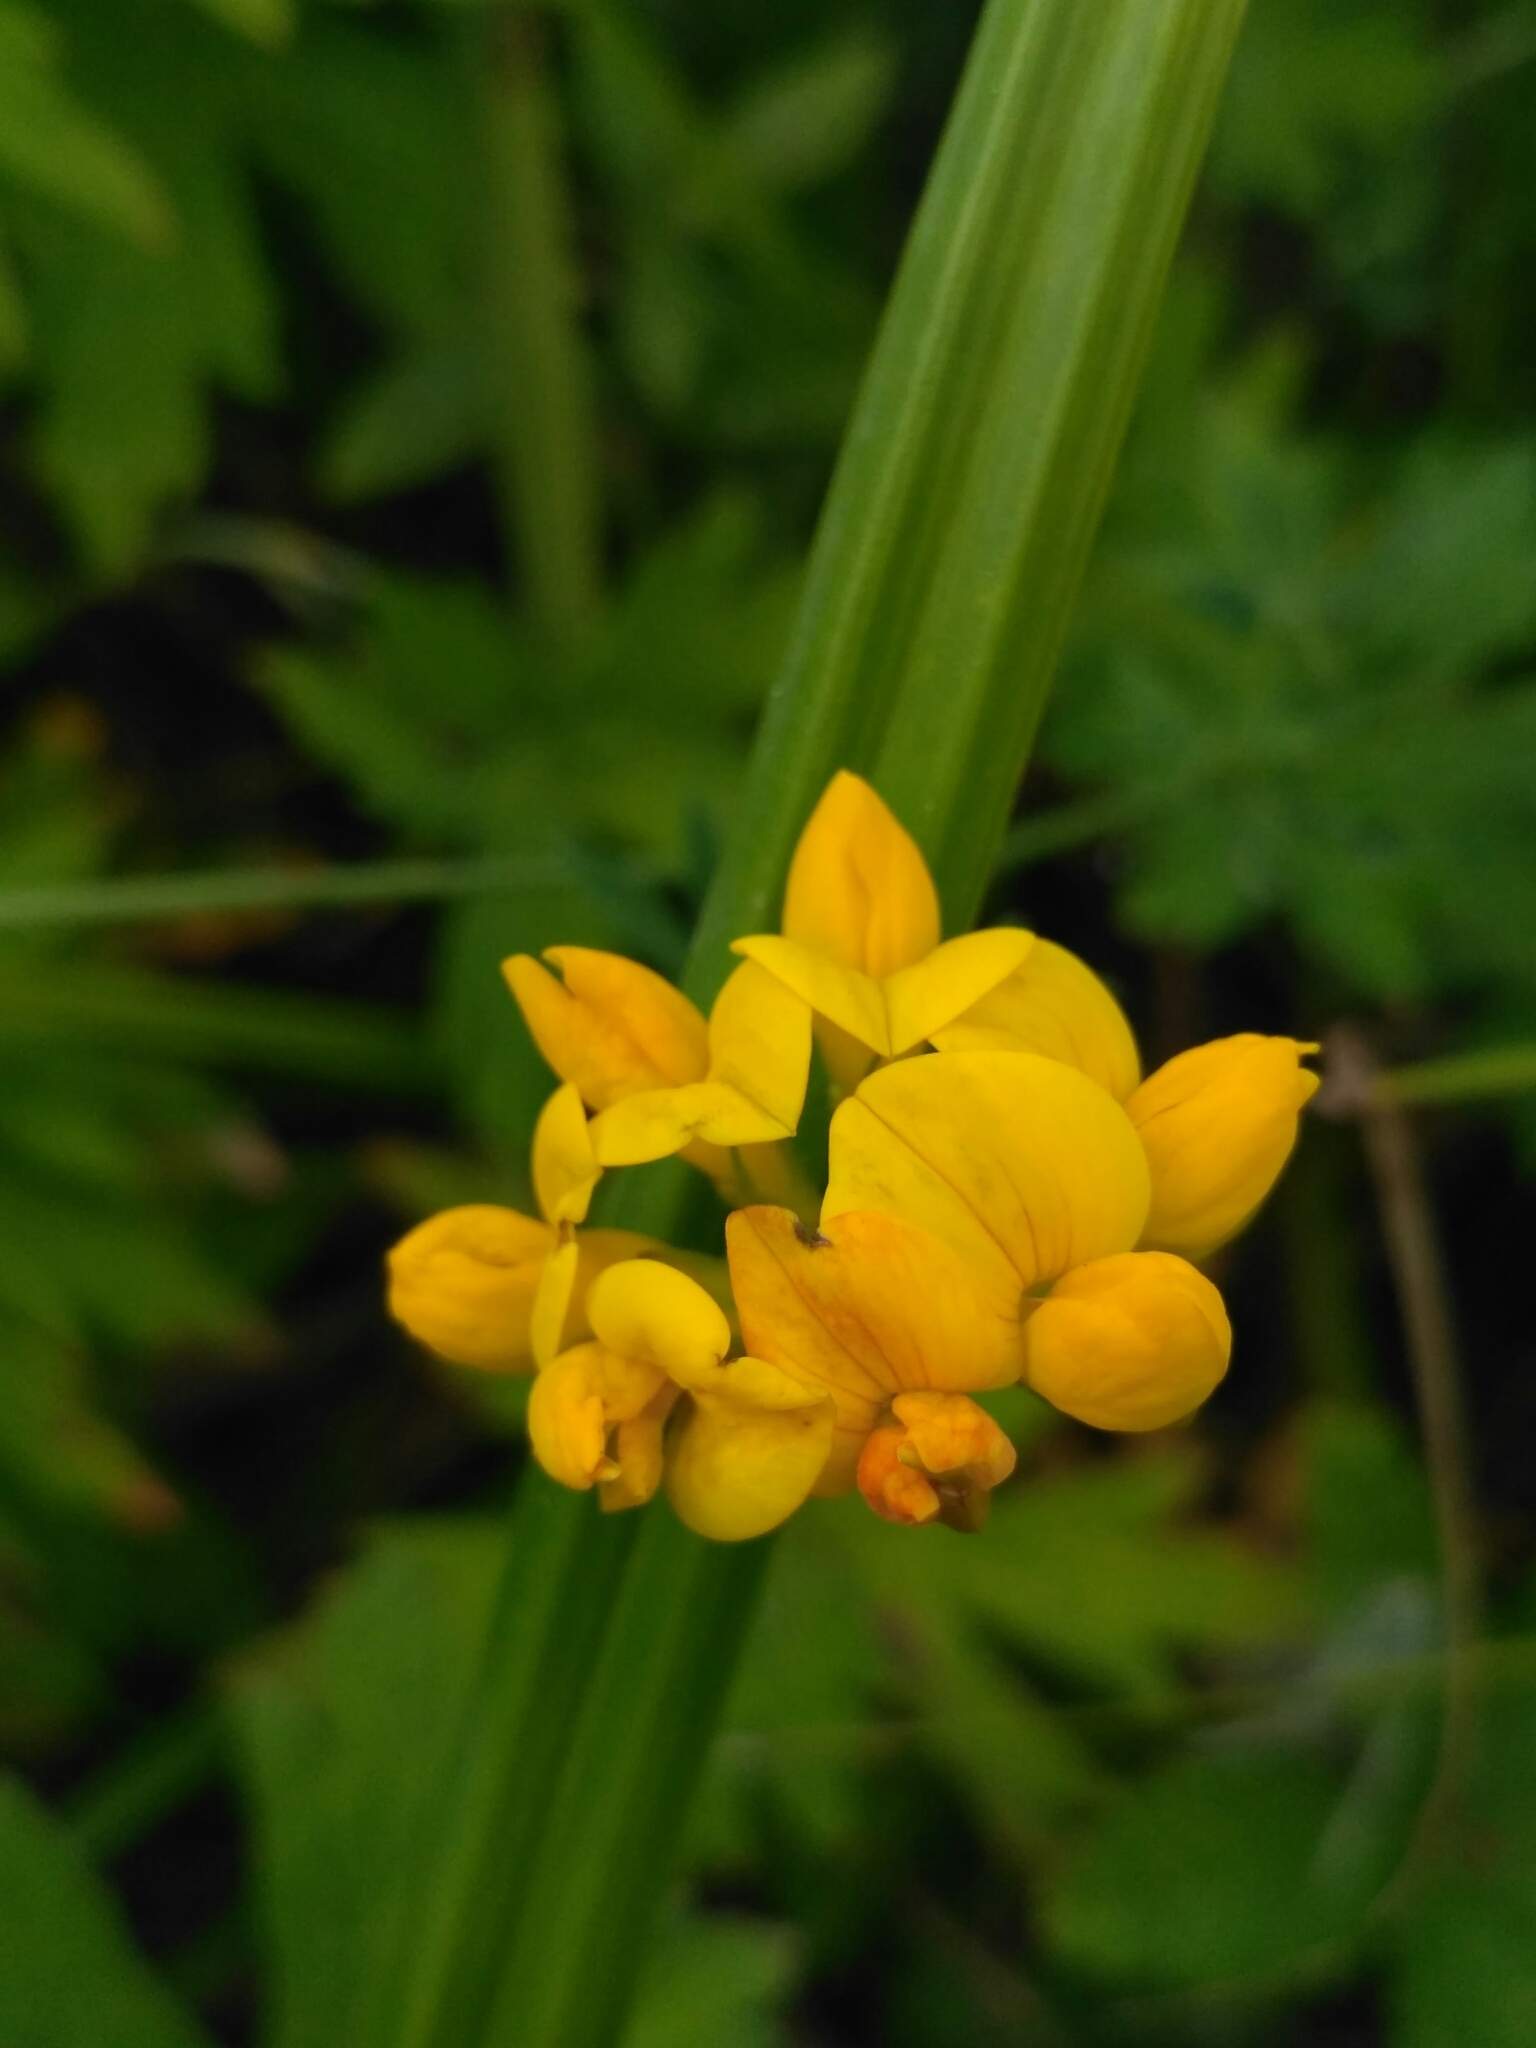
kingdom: Plantae
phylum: Tracheophyta
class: Magnoliopsida
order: Fabales
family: Fabaceae
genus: Lotus
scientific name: Lotus corniculatus
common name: Common bird's-foot-trefoil
